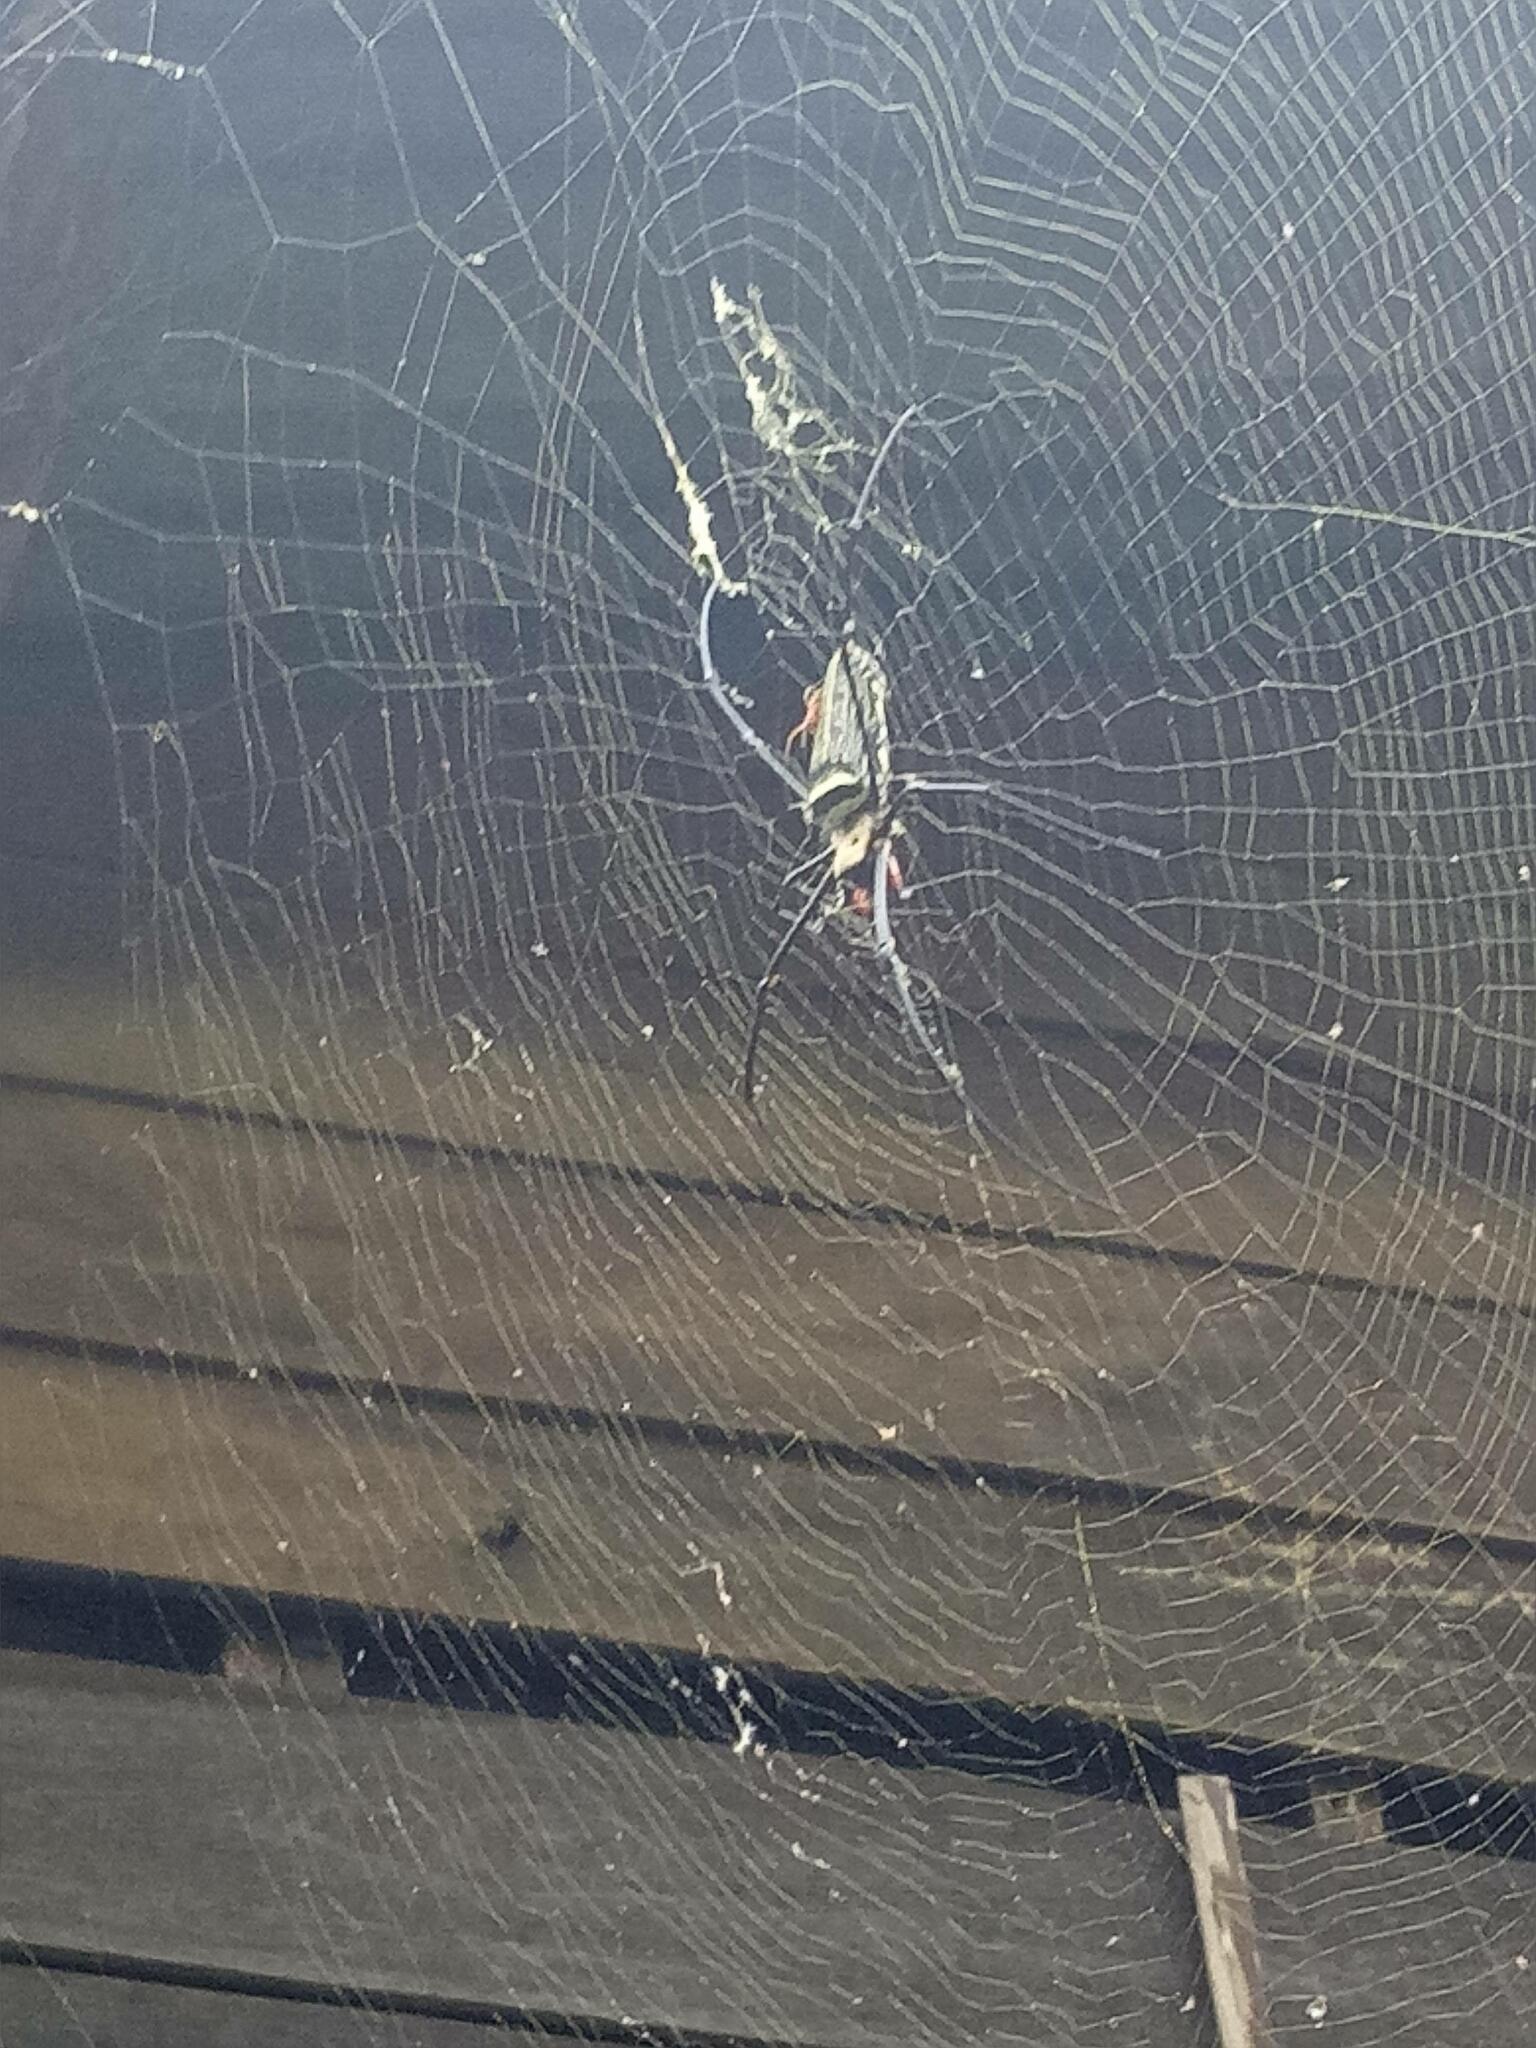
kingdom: Animalia
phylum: Arthropoda
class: Arachnida
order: Araneae
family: Araneidae
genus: Nephila
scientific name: Nephila pilipes
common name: Giant golden orb weaver
